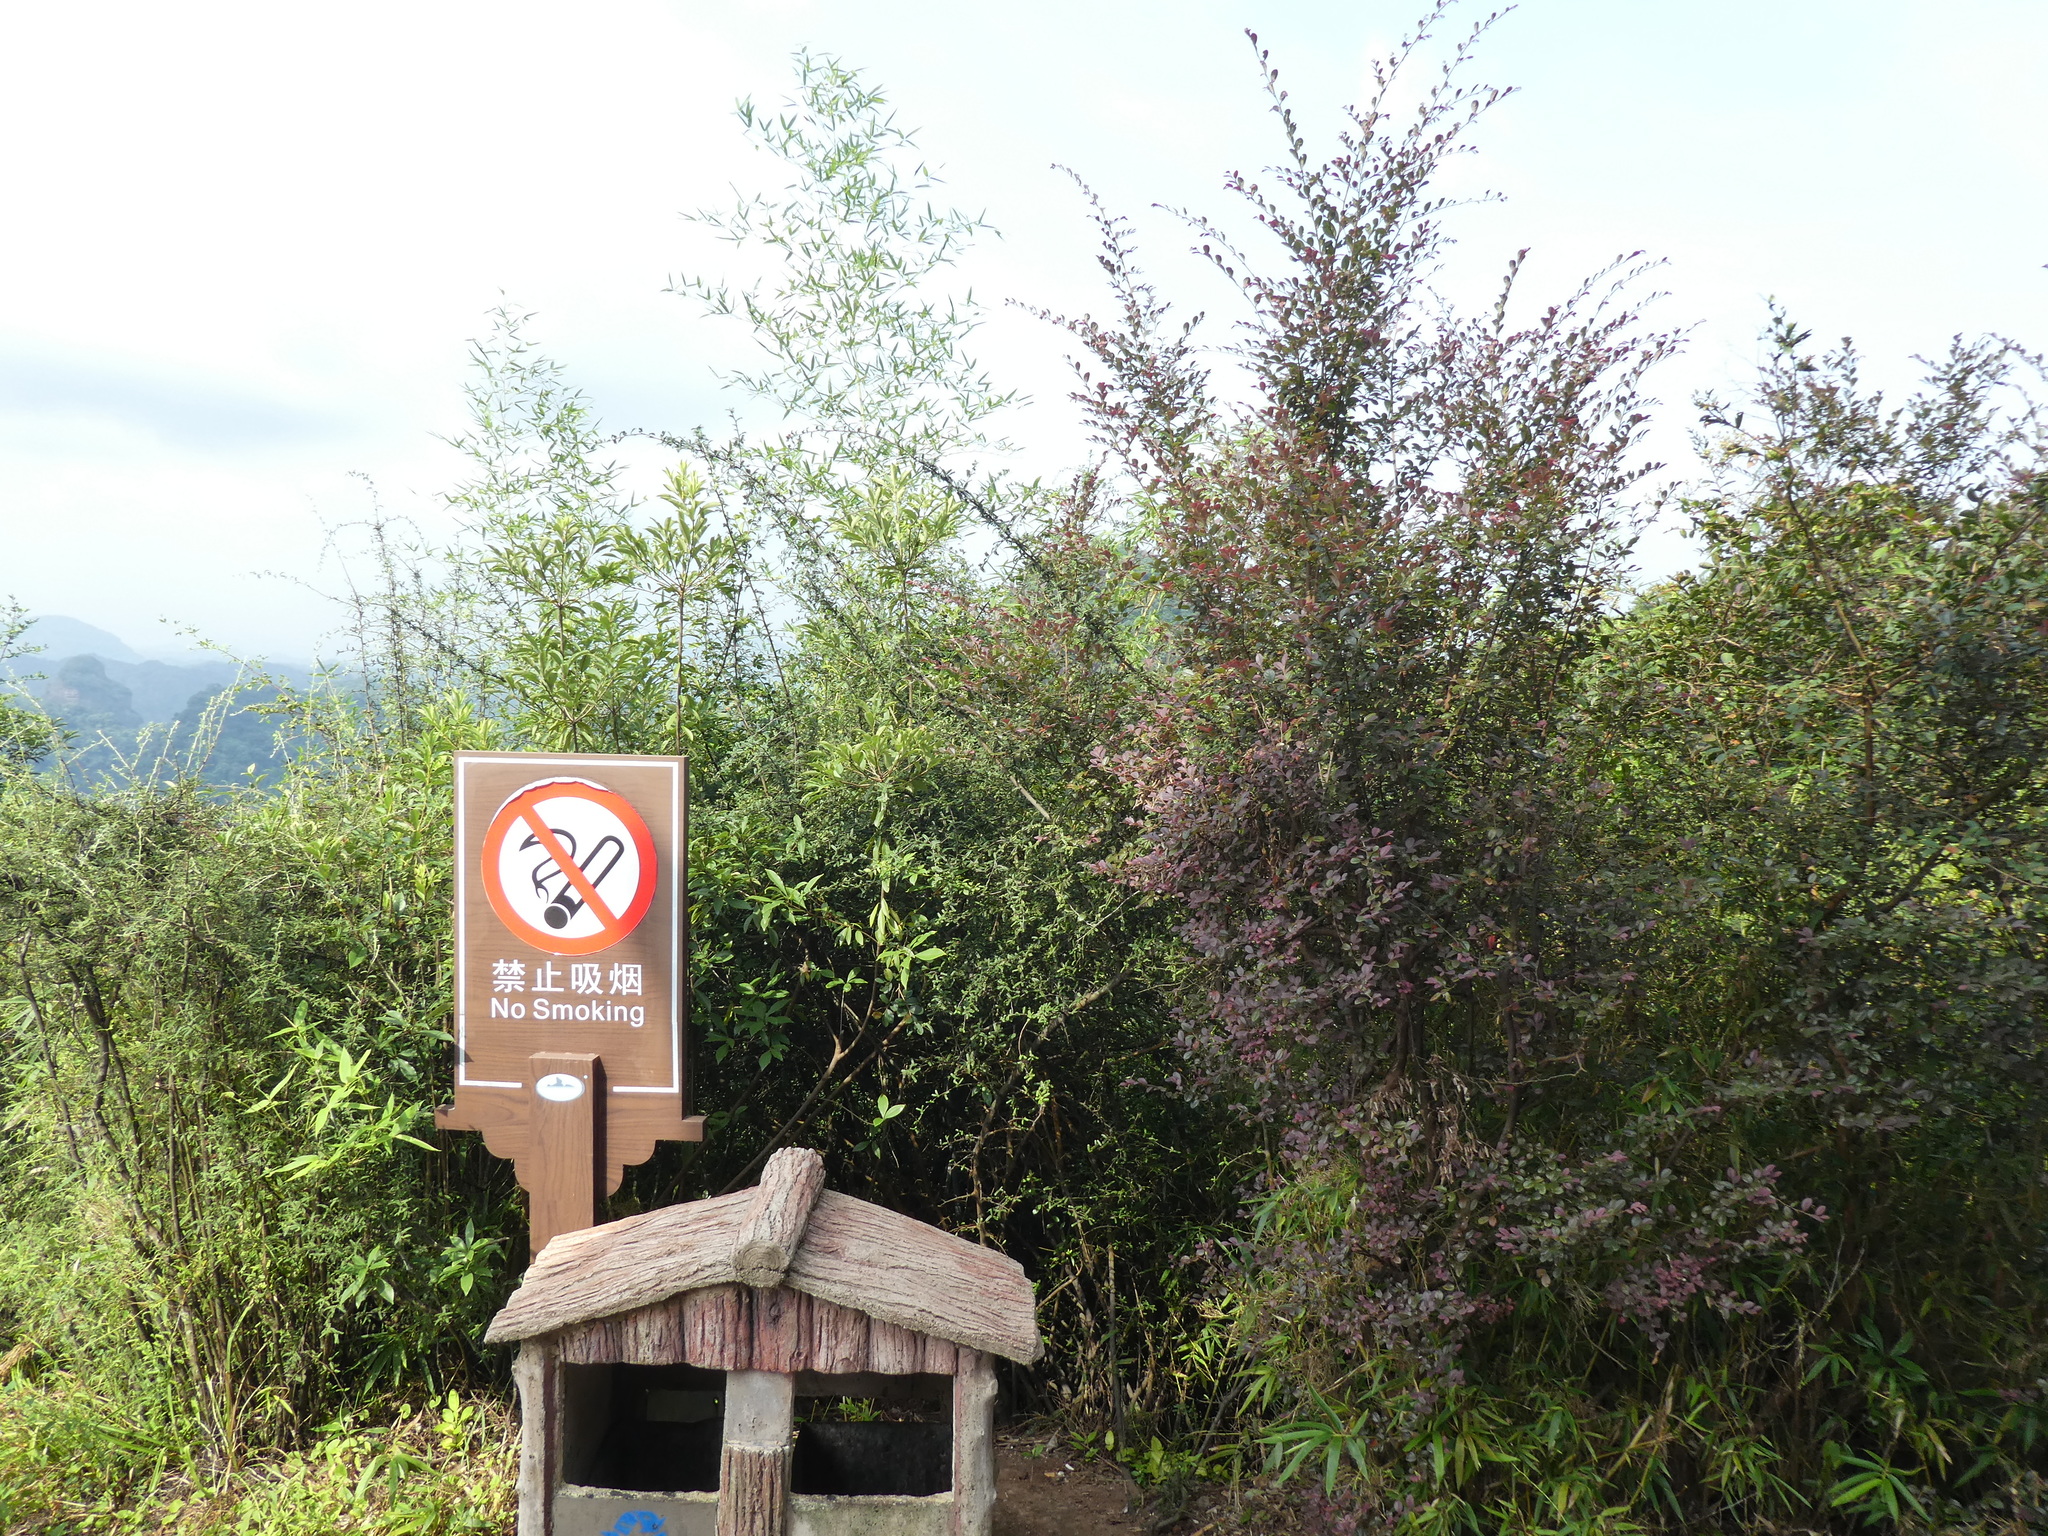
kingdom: Plantae
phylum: Tracheophyta
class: Magnoliopsida
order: Saxifragales
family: Hamamelidaceae
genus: Loropetalum
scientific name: Loropetalum chinense
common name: Chinese fringe flower
